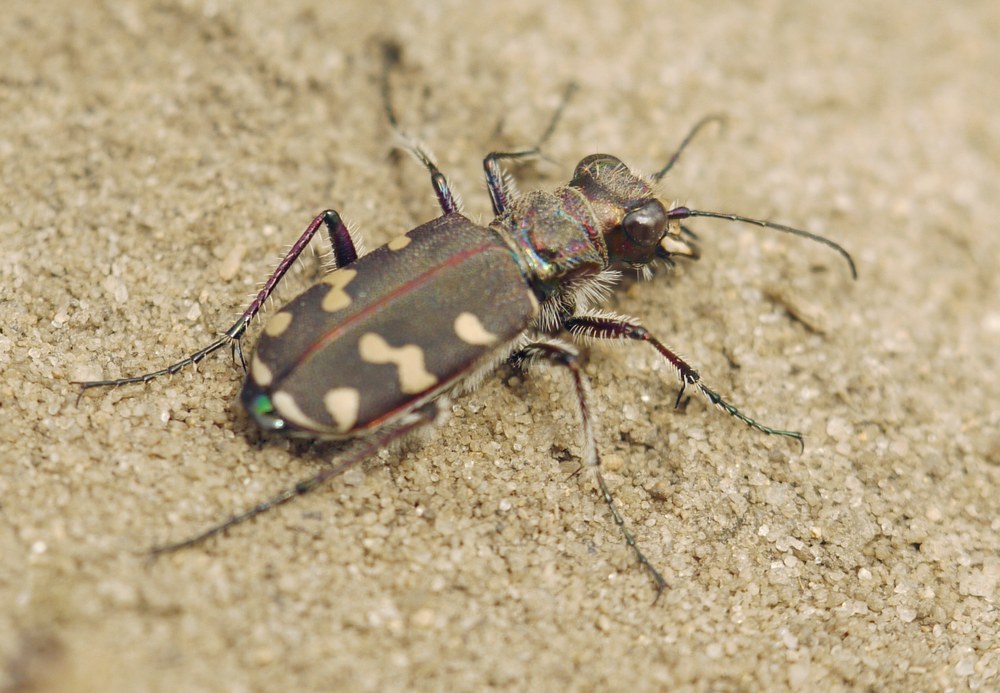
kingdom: Animalia
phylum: Arthropoda
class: Insecta
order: Coleoptera
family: Carabidae
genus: Cicindela
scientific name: Cicindela soluta
